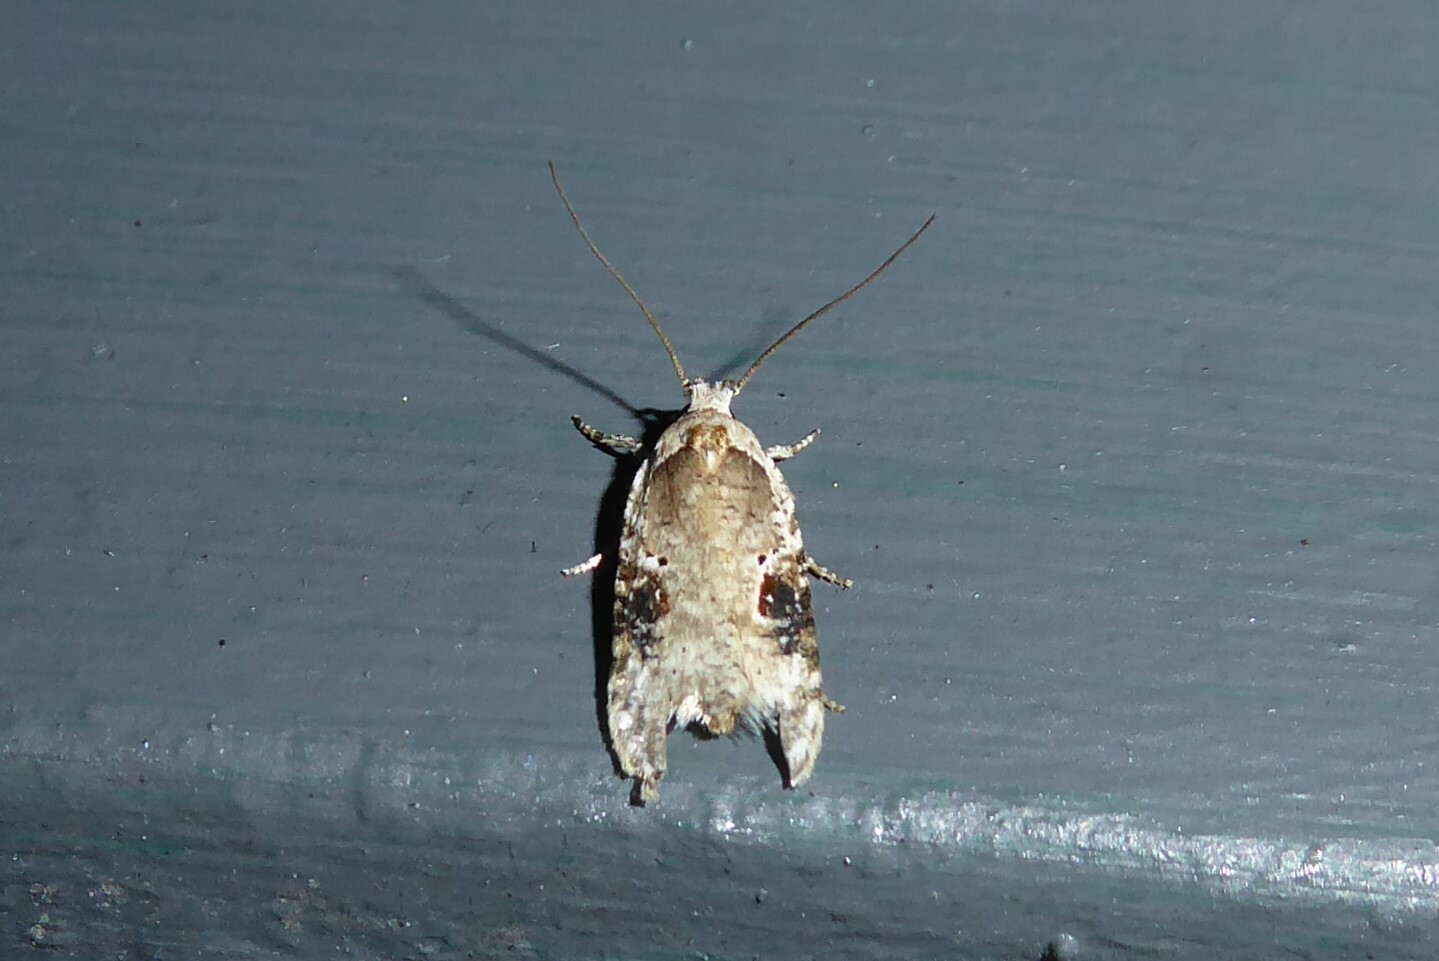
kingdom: Animalia
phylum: Arthropoda
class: Insecta
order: Lepidoptera
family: Depressariidae
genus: Agonopterix
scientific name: Agonopterix alstroemeriana
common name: Moth
